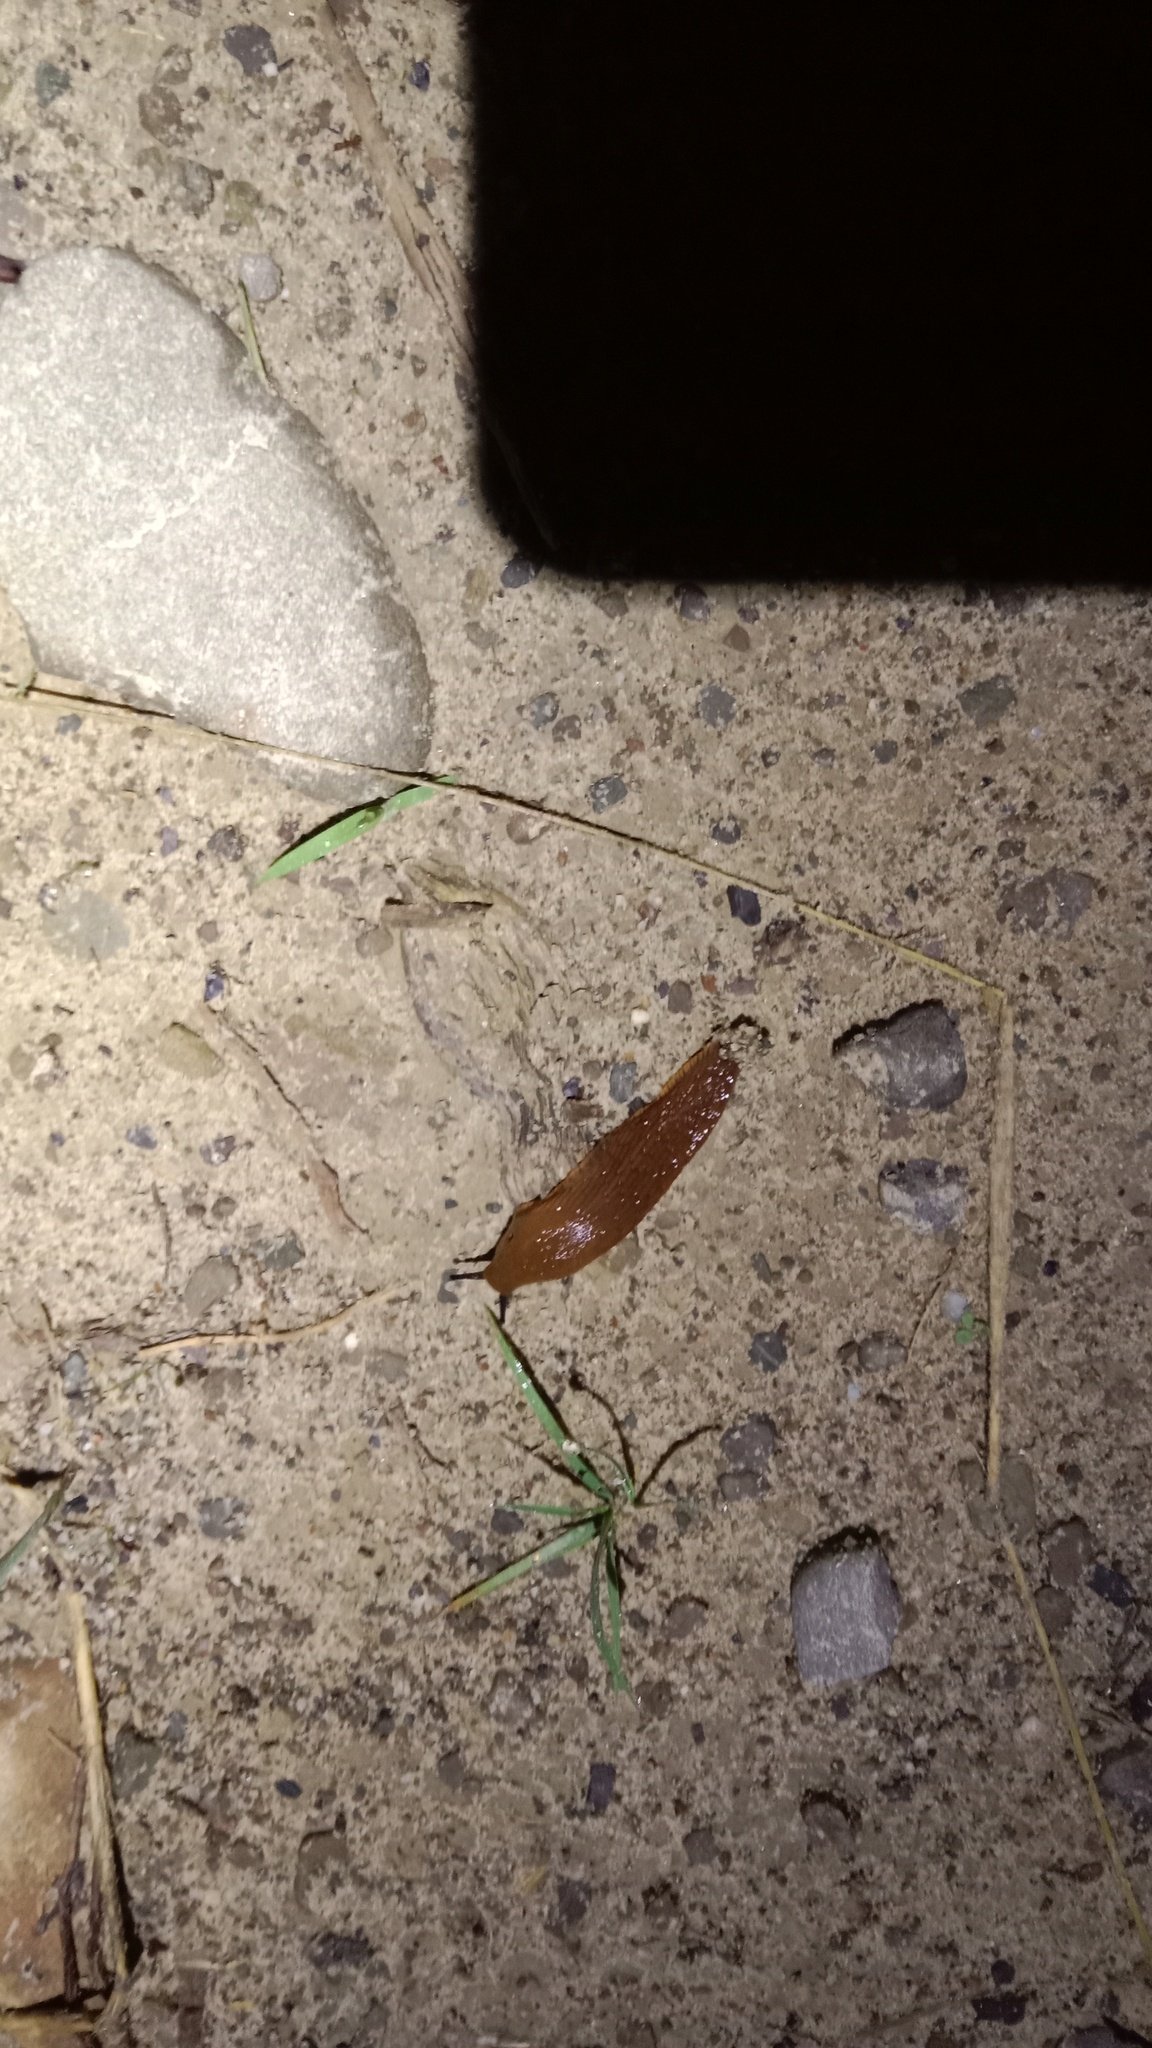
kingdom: Animalia
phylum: Mollusca
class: Gastropoda
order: Stylommatophora
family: Arionidae
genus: Arion
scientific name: Arion vulgaris
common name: Lusitanian slug
